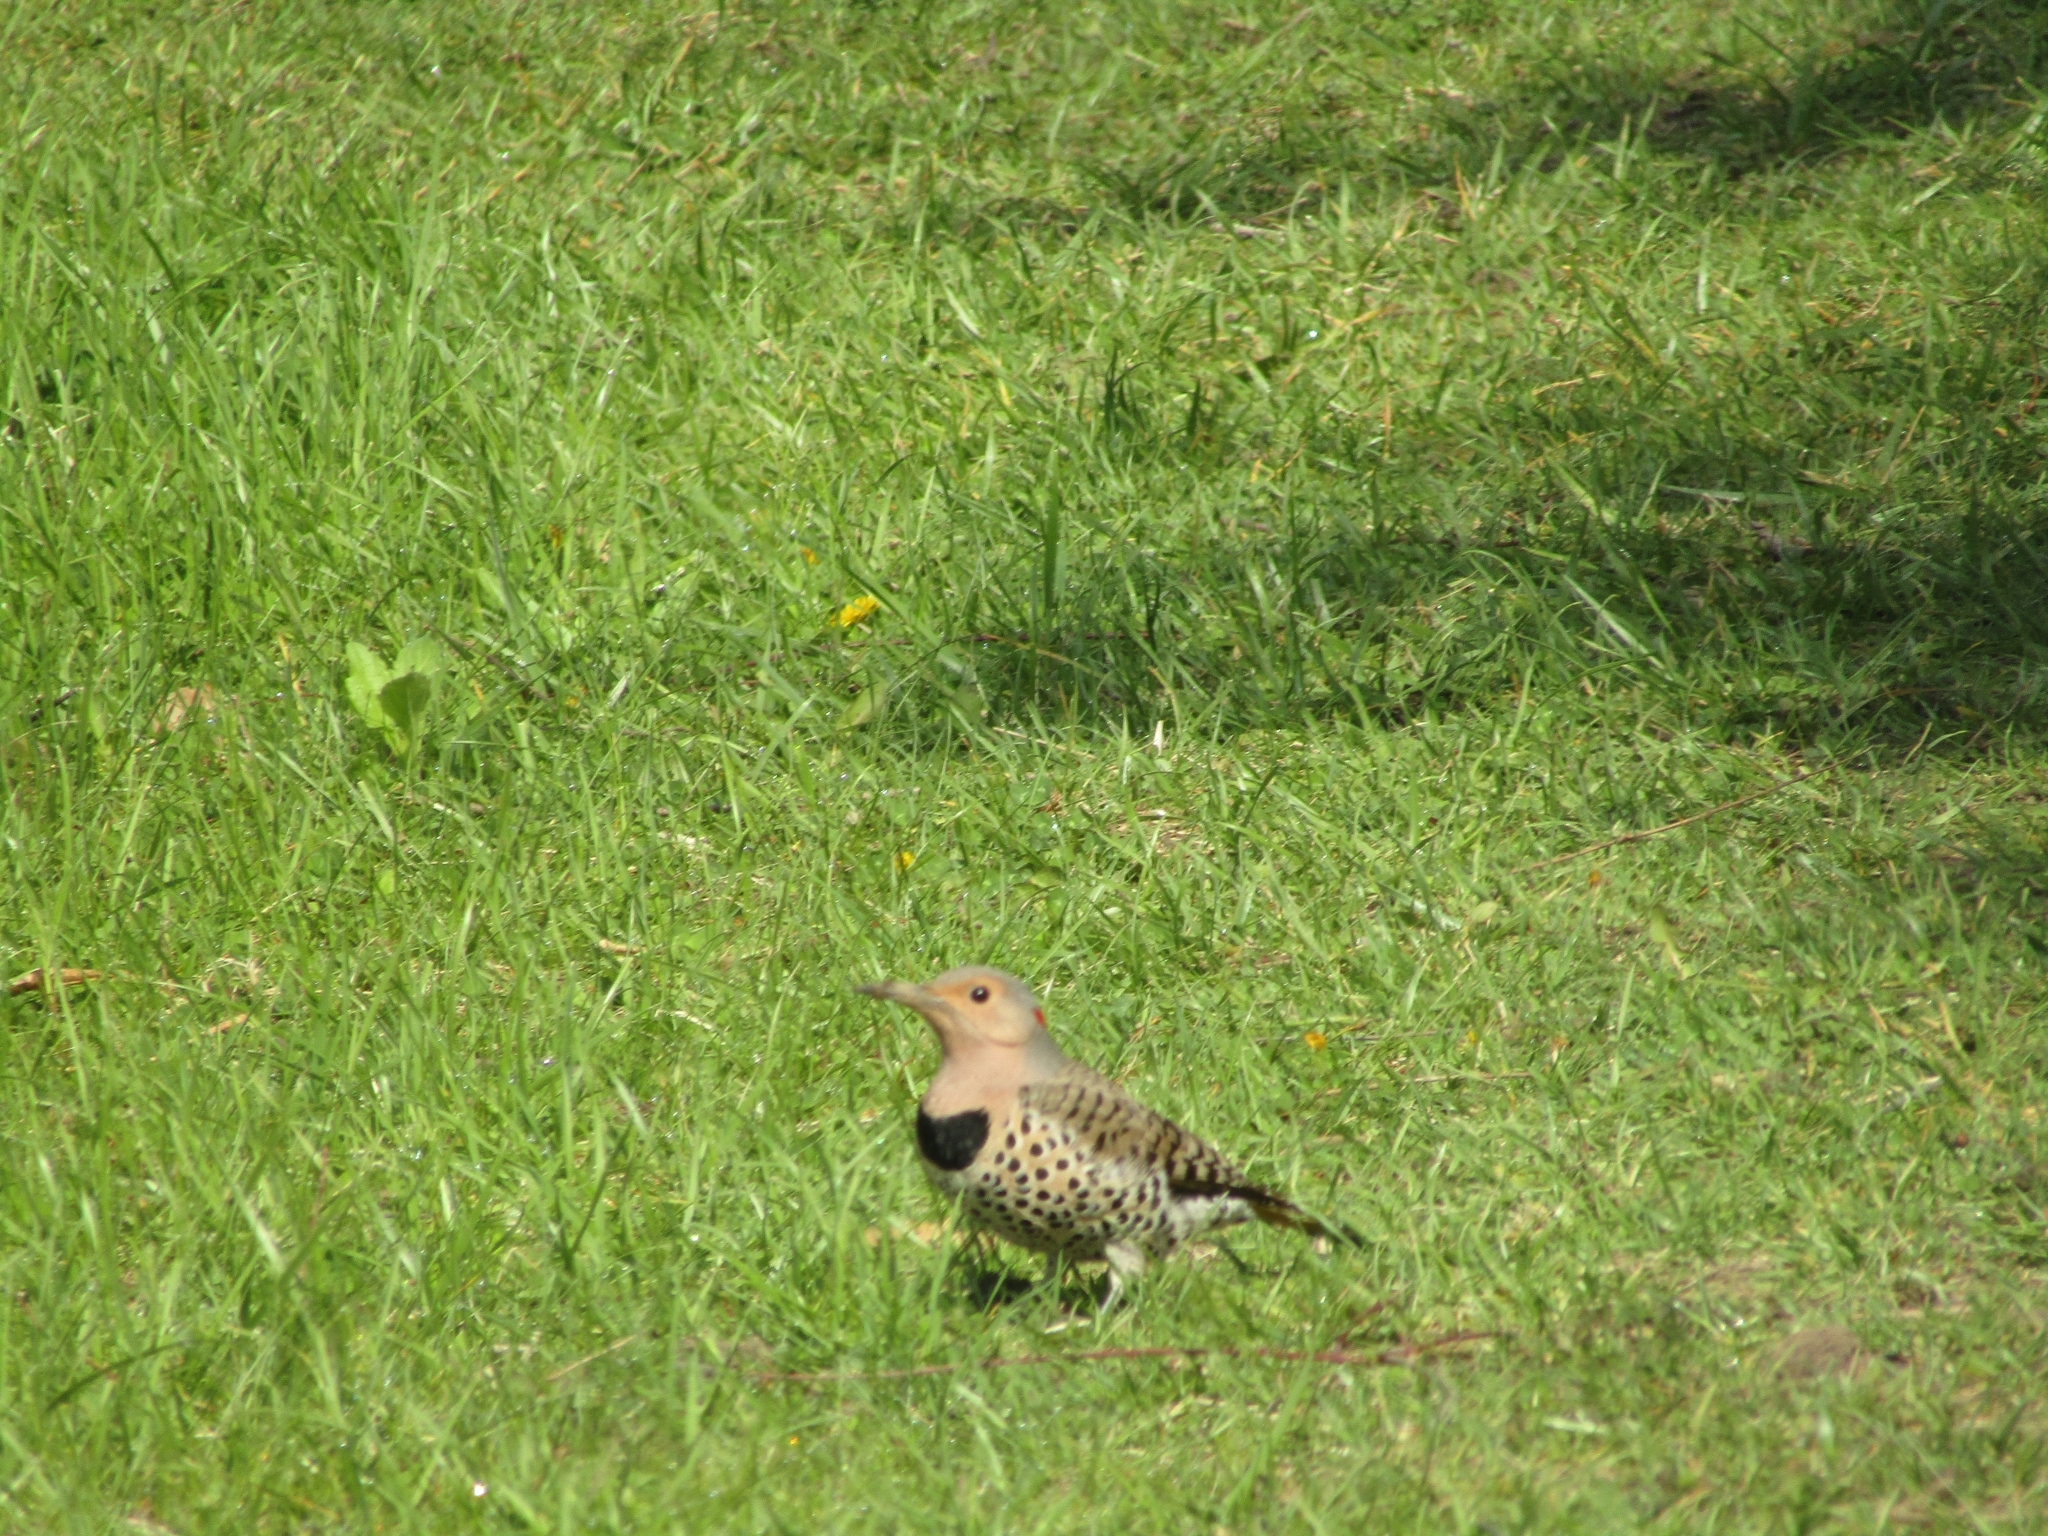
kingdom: Animalia
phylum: Chordata
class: Aves
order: Piciformes
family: Picidae
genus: Colaptes
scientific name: Colaptes auratus
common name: Northern flicker
